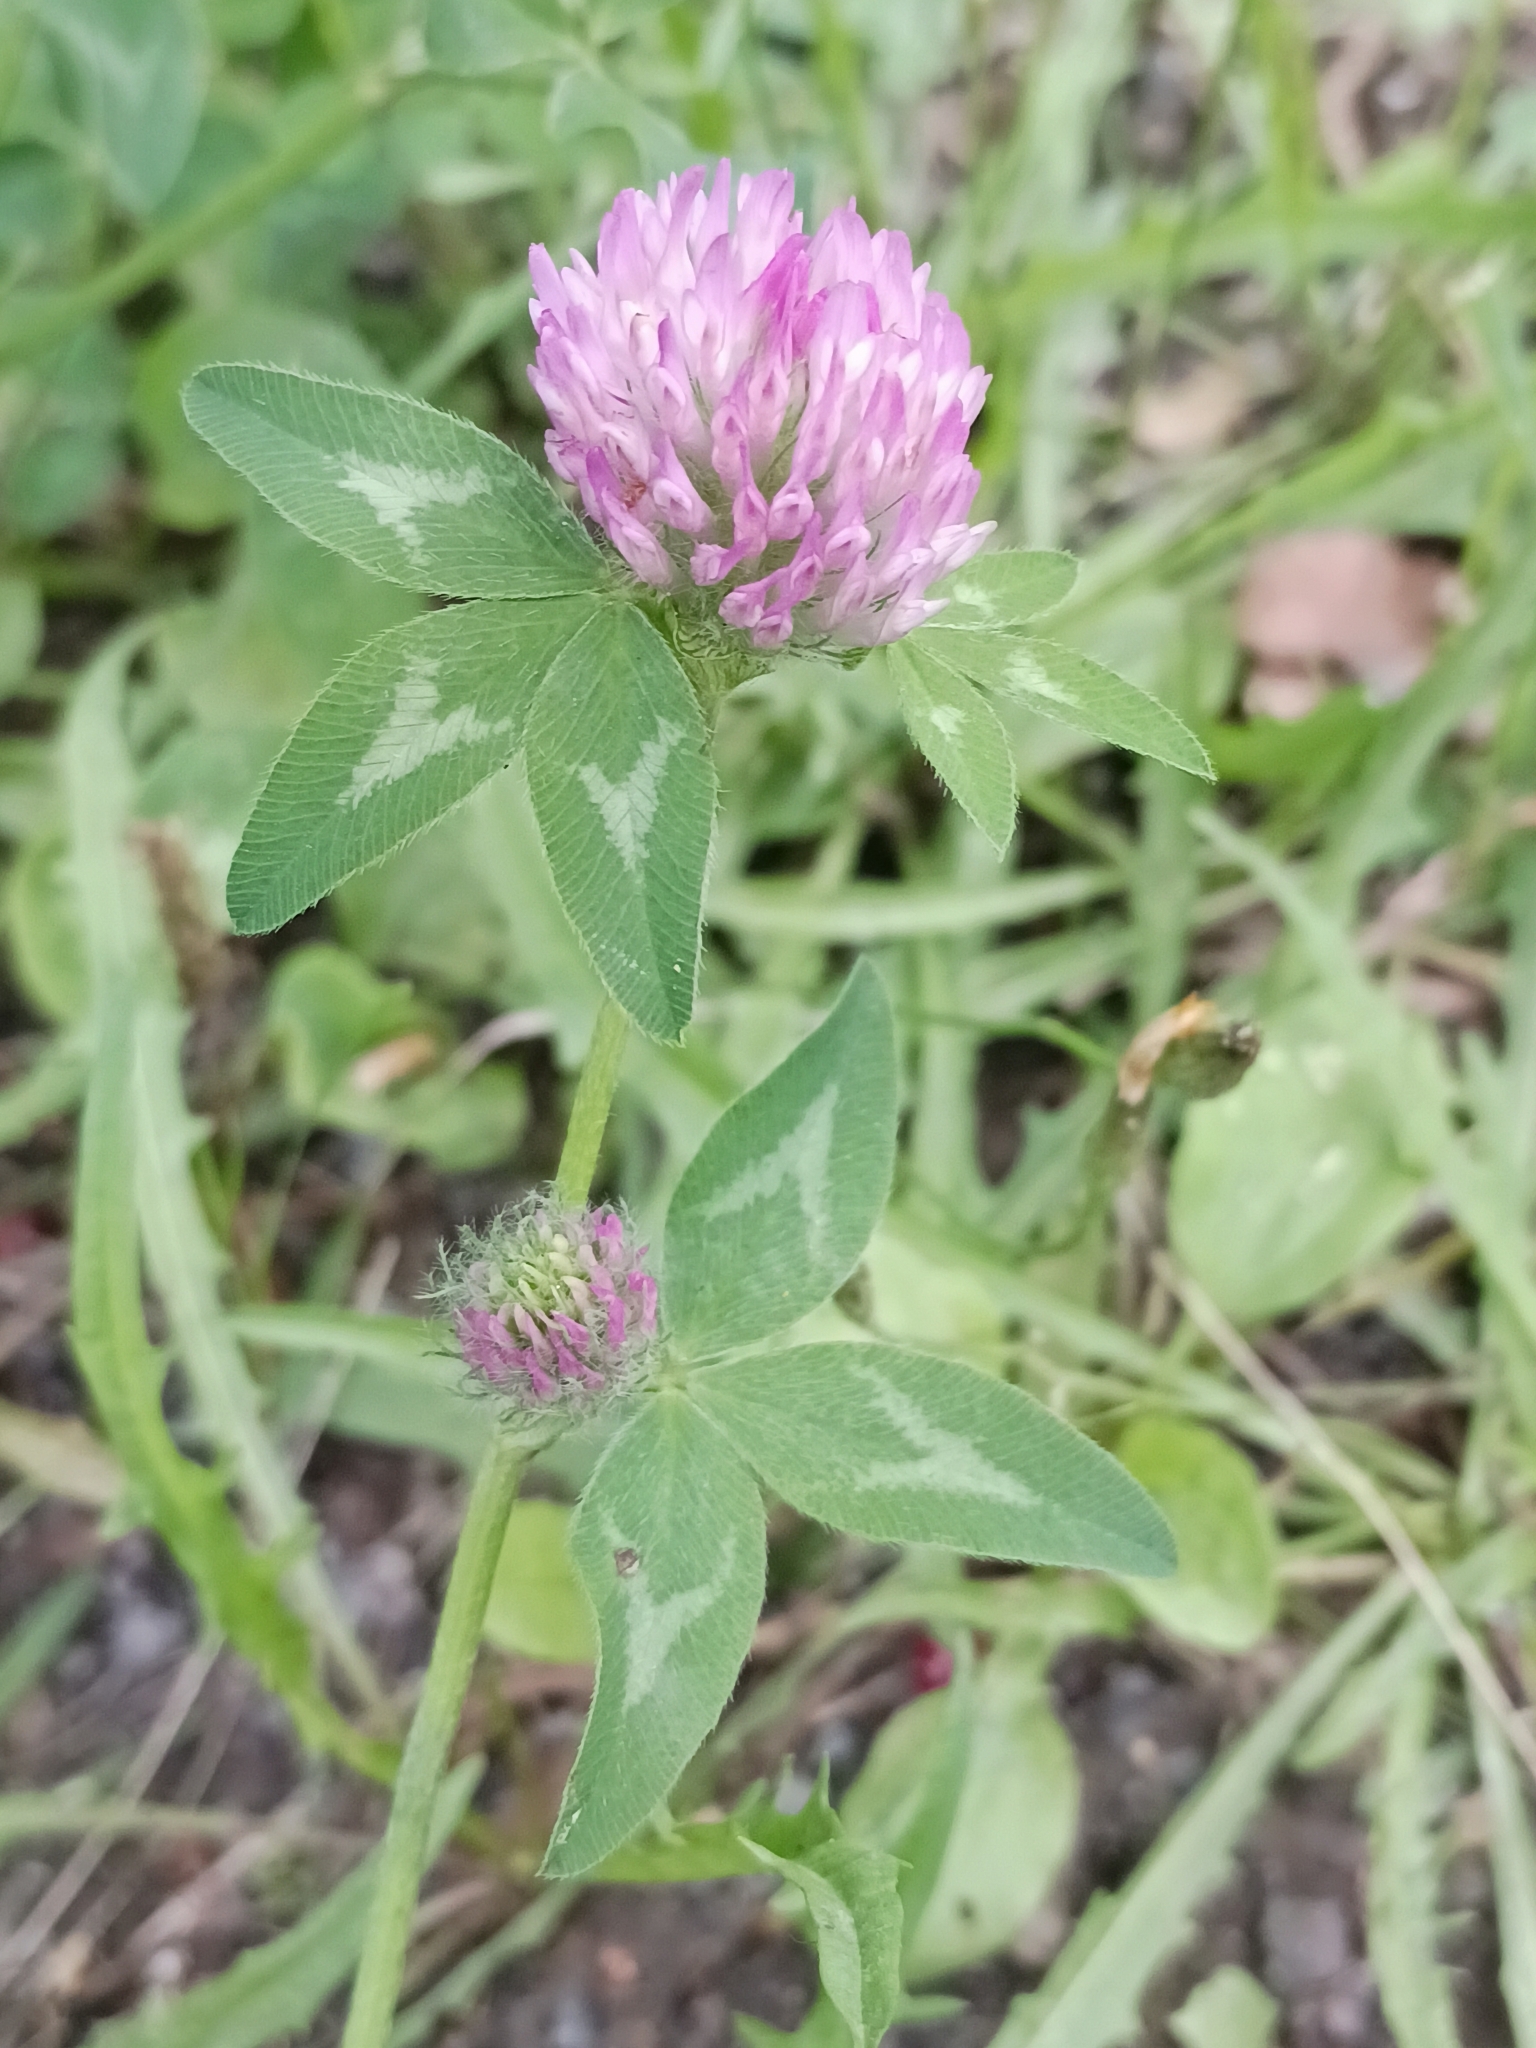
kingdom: Plantae
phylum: Tracheophyta
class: Magnoliopsida
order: Fabales
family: Fabaceae
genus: Trifolium
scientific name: Trifolium pratense
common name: Red clover
